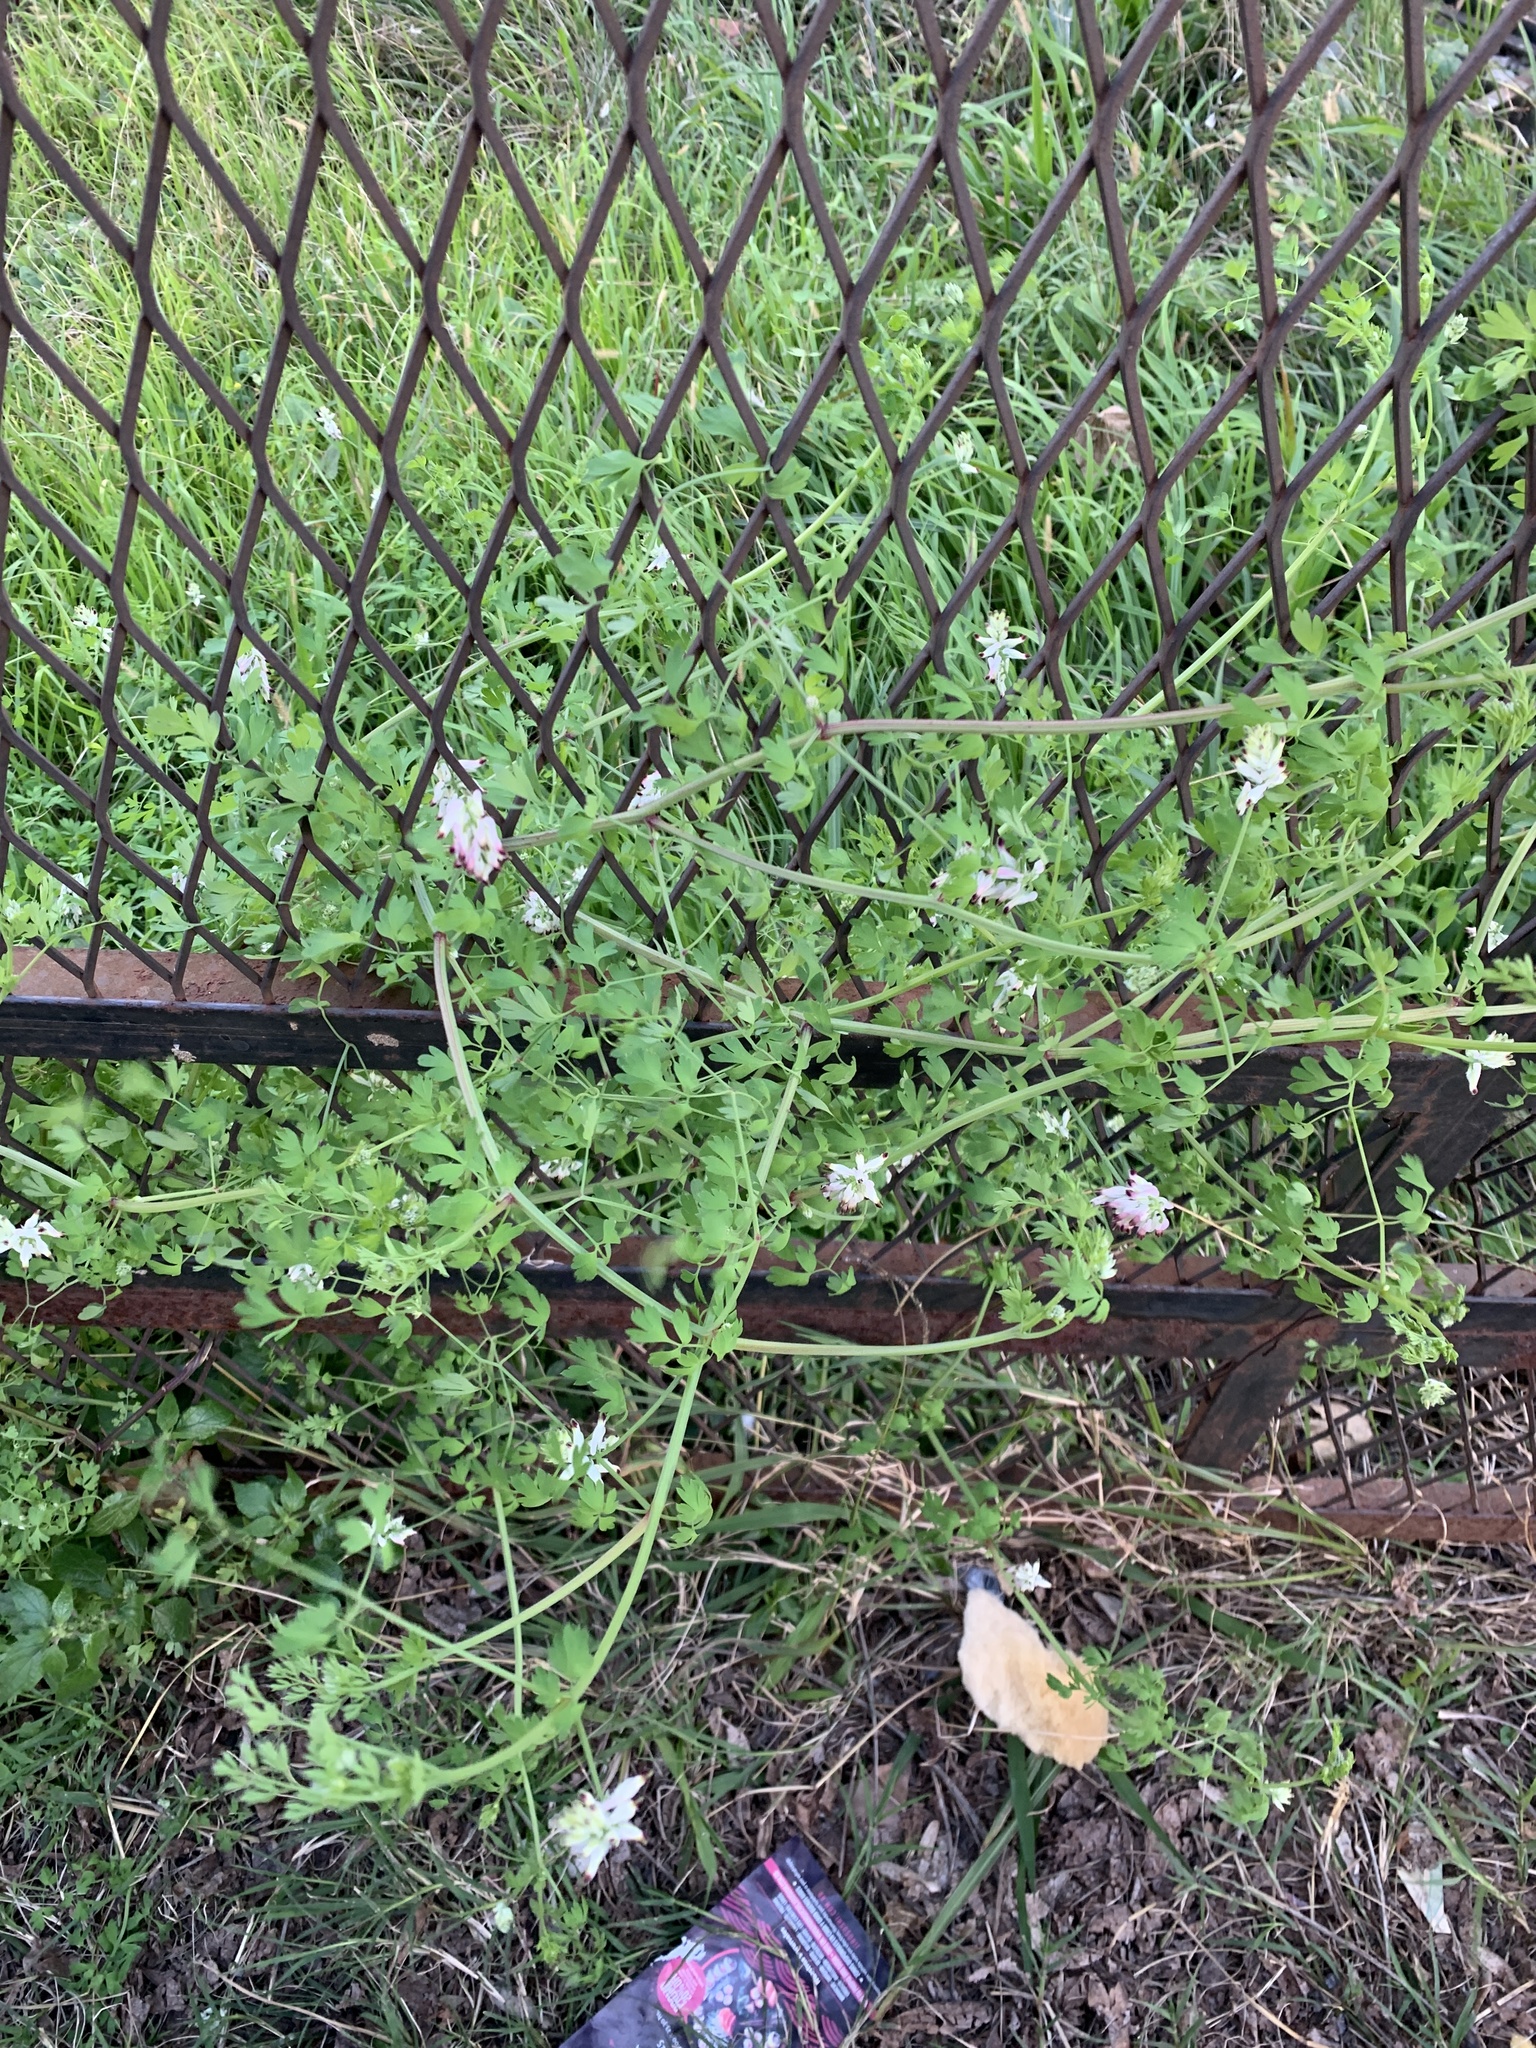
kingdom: Plantae
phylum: Tracheophyta
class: Magnoliopsida
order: Ranunculales
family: Papaveraceae
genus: Fumaria
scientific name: Fumaria capreolata
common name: White ramping-fumitory
